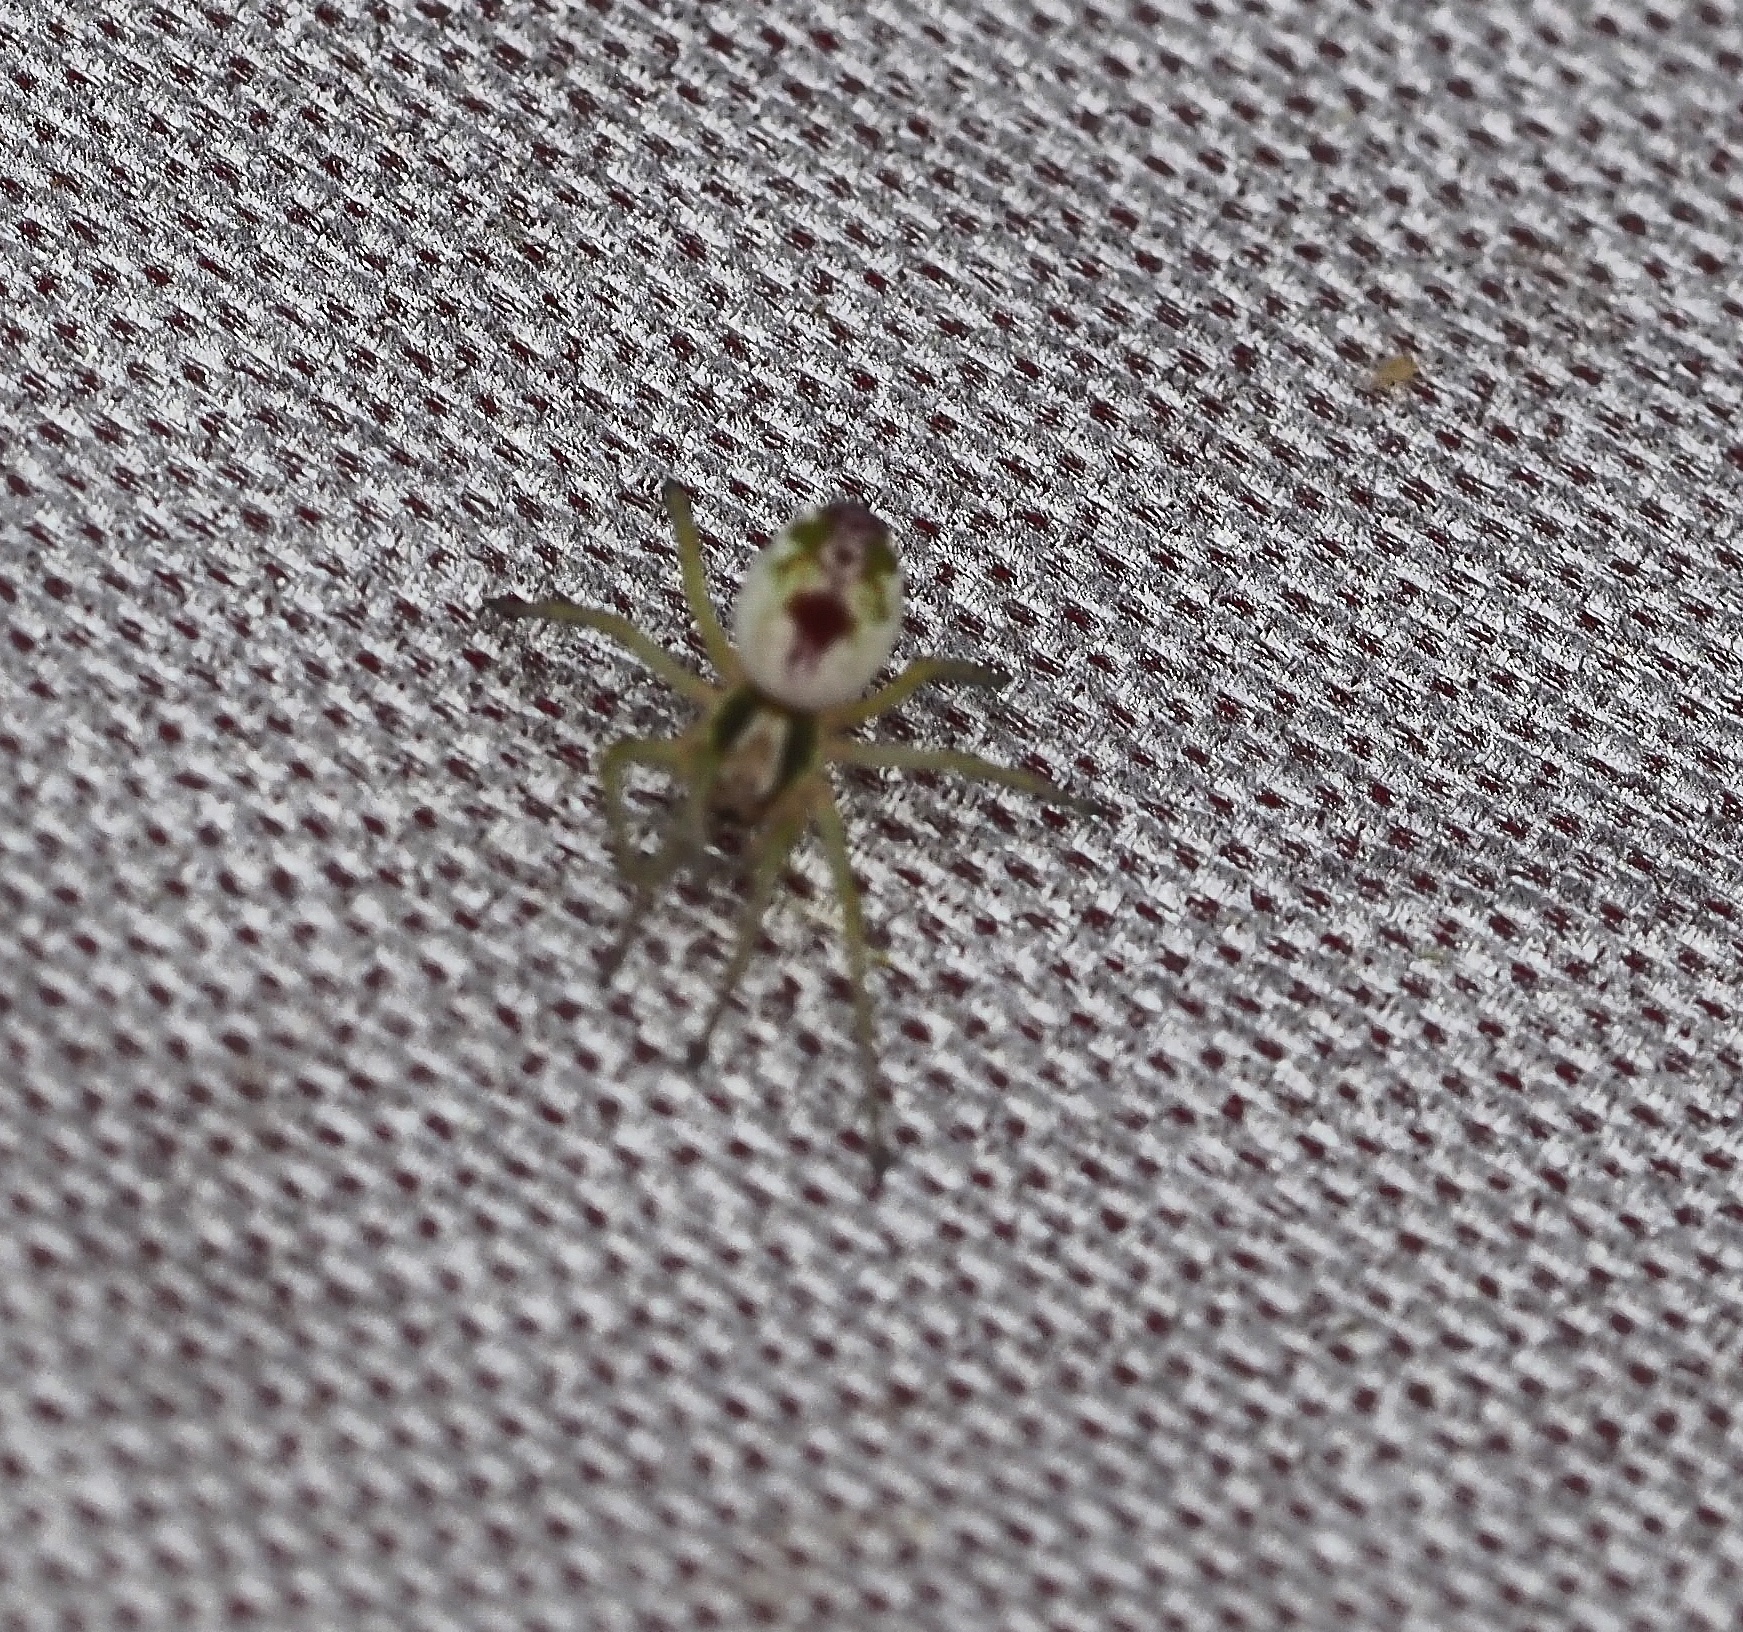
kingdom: Animalia
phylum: Arthropoda
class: Arachnida
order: Araneae
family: Dictynidae
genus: Nigma
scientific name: Nigma puella
